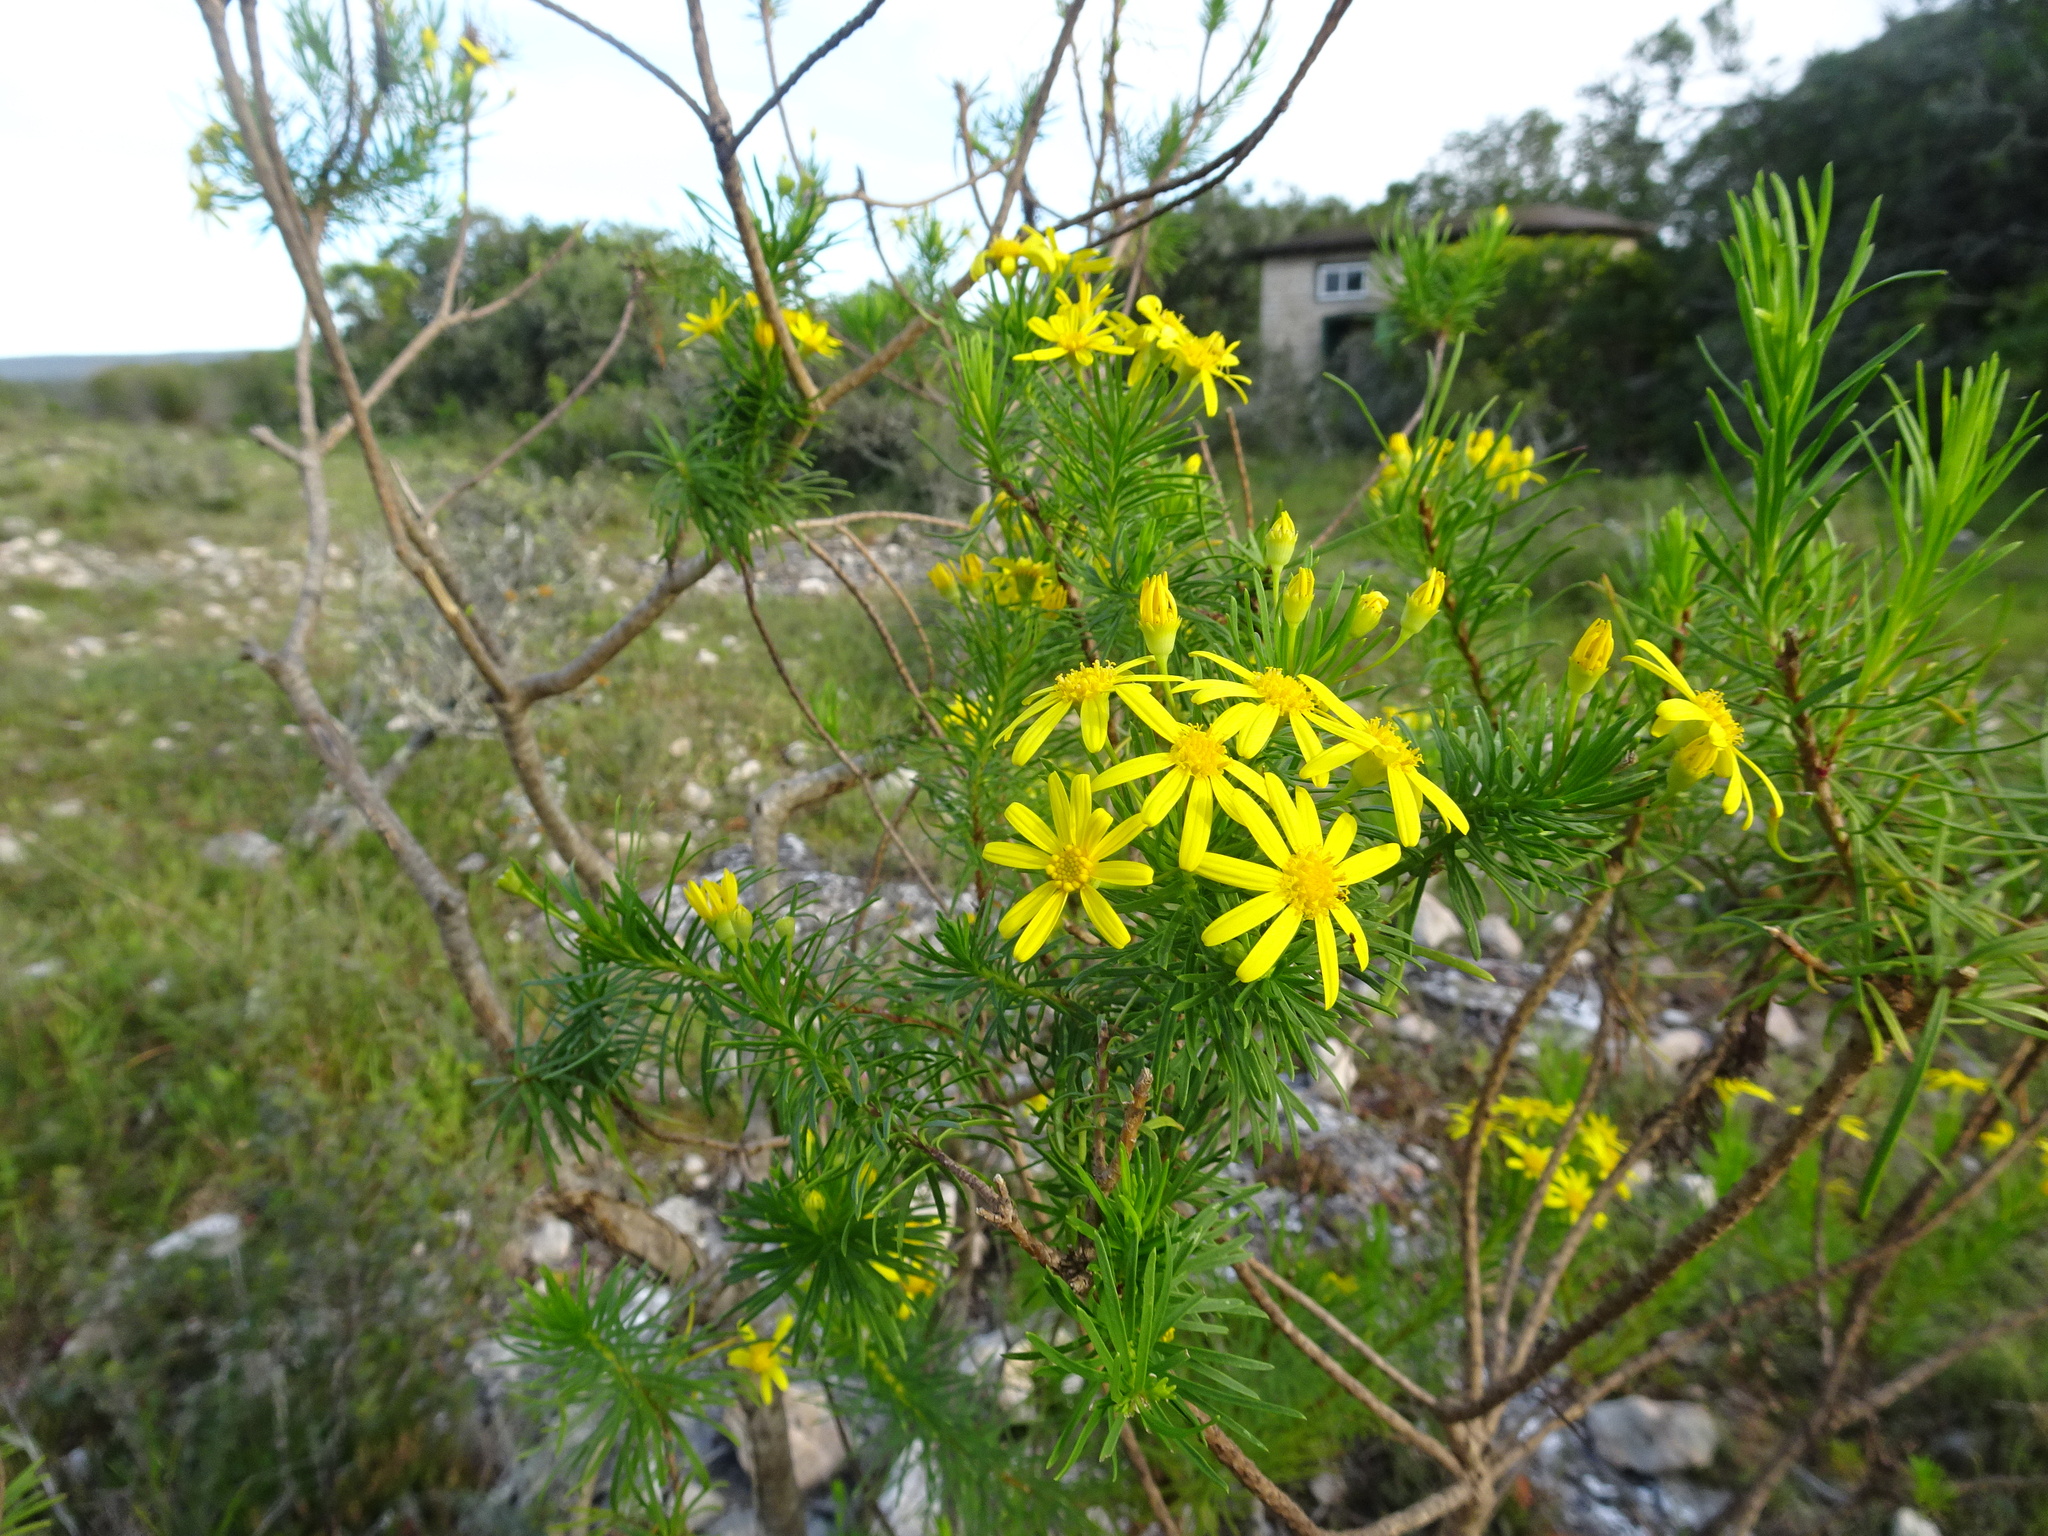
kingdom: Plantae
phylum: Tracheophyta
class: Magnoliopsida
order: Asterales
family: Asteraceae
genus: Euryops
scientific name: Euryops linearis
